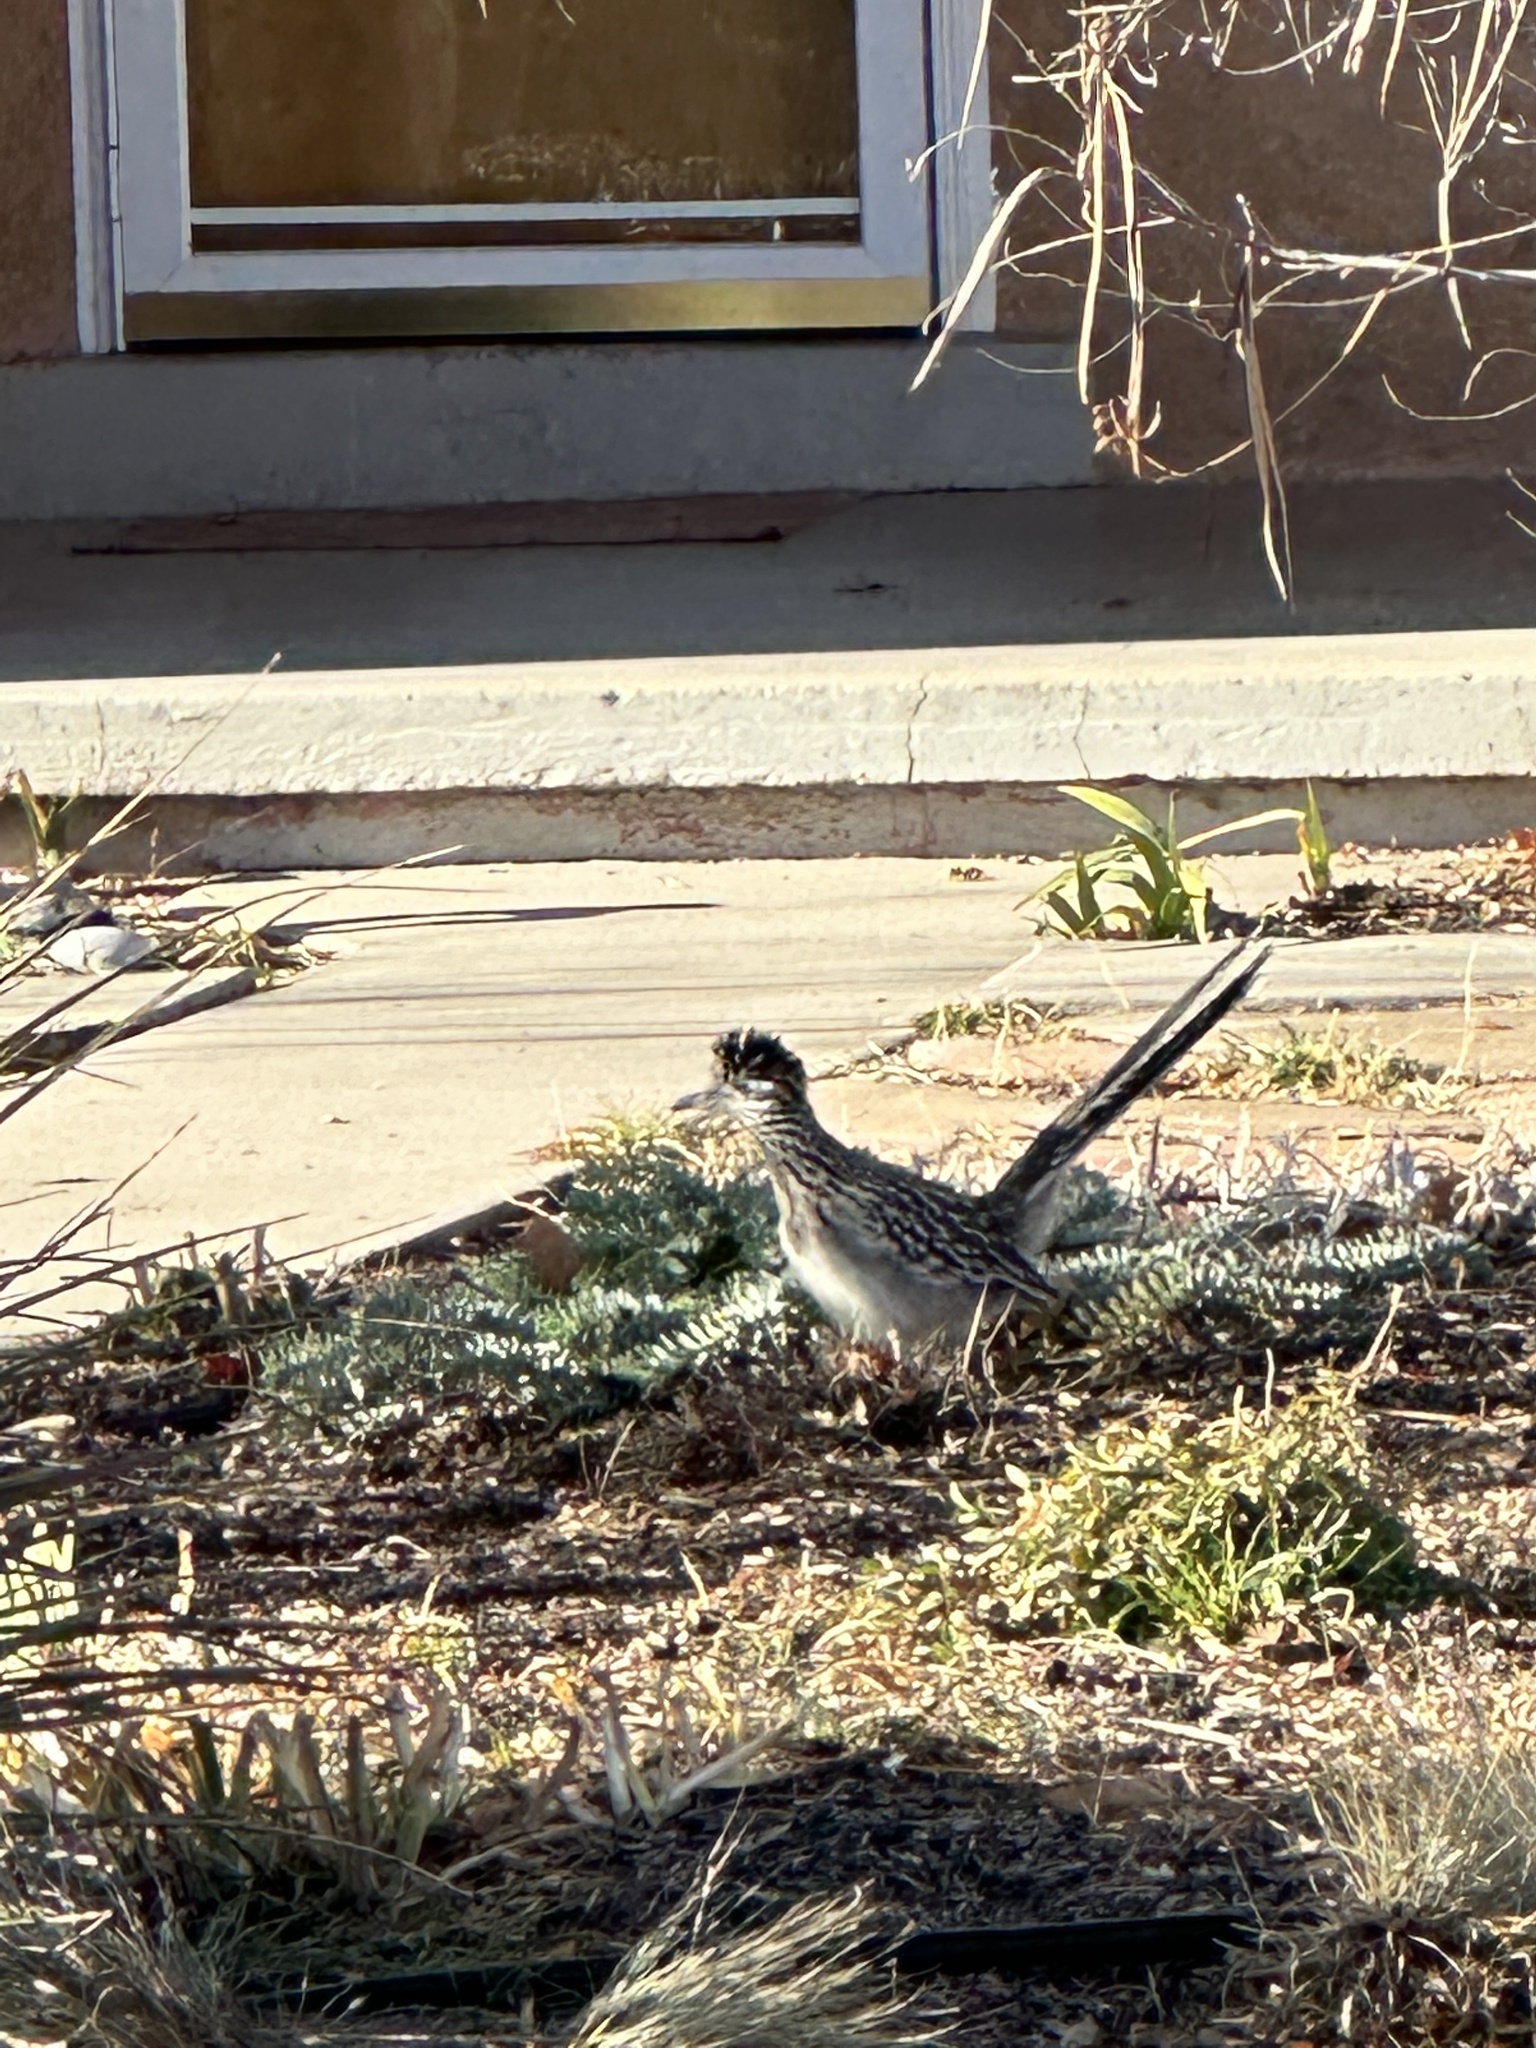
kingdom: Animalia
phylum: Chordata
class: Aves
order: Cuculiformes
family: Cuculidae
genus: Geococcyx
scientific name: Geococcyx californianus
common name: Greater roadrunner
